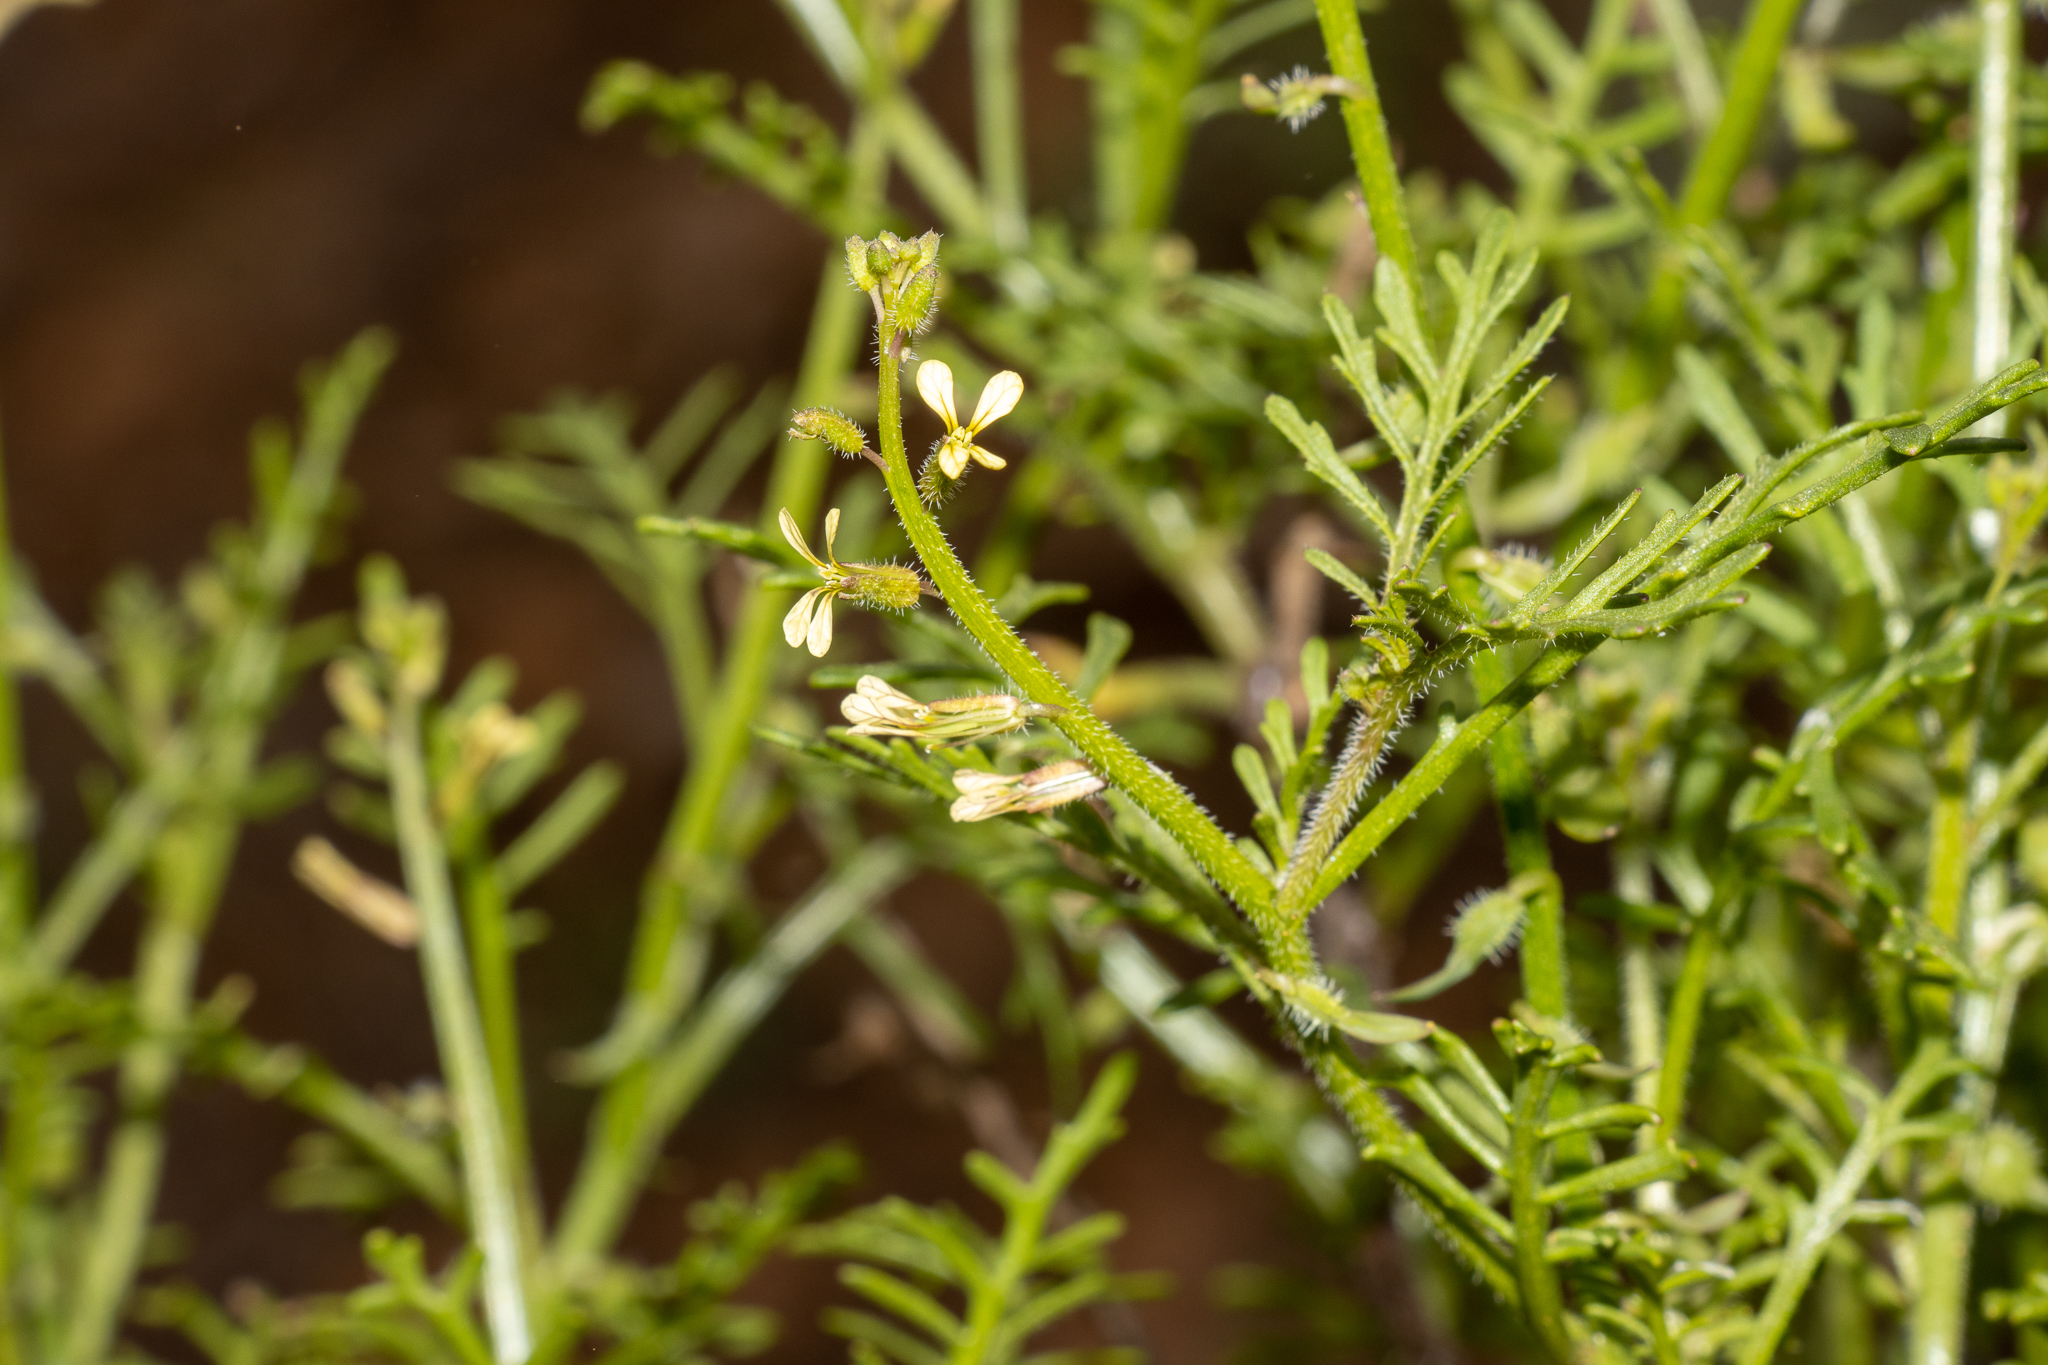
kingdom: Plantae
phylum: Tracheophyta
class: Magnoliopsida
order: Brassicales
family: Brassicaceae
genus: Carrichtera
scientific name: Carrichtera annua
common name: Cress rocket
